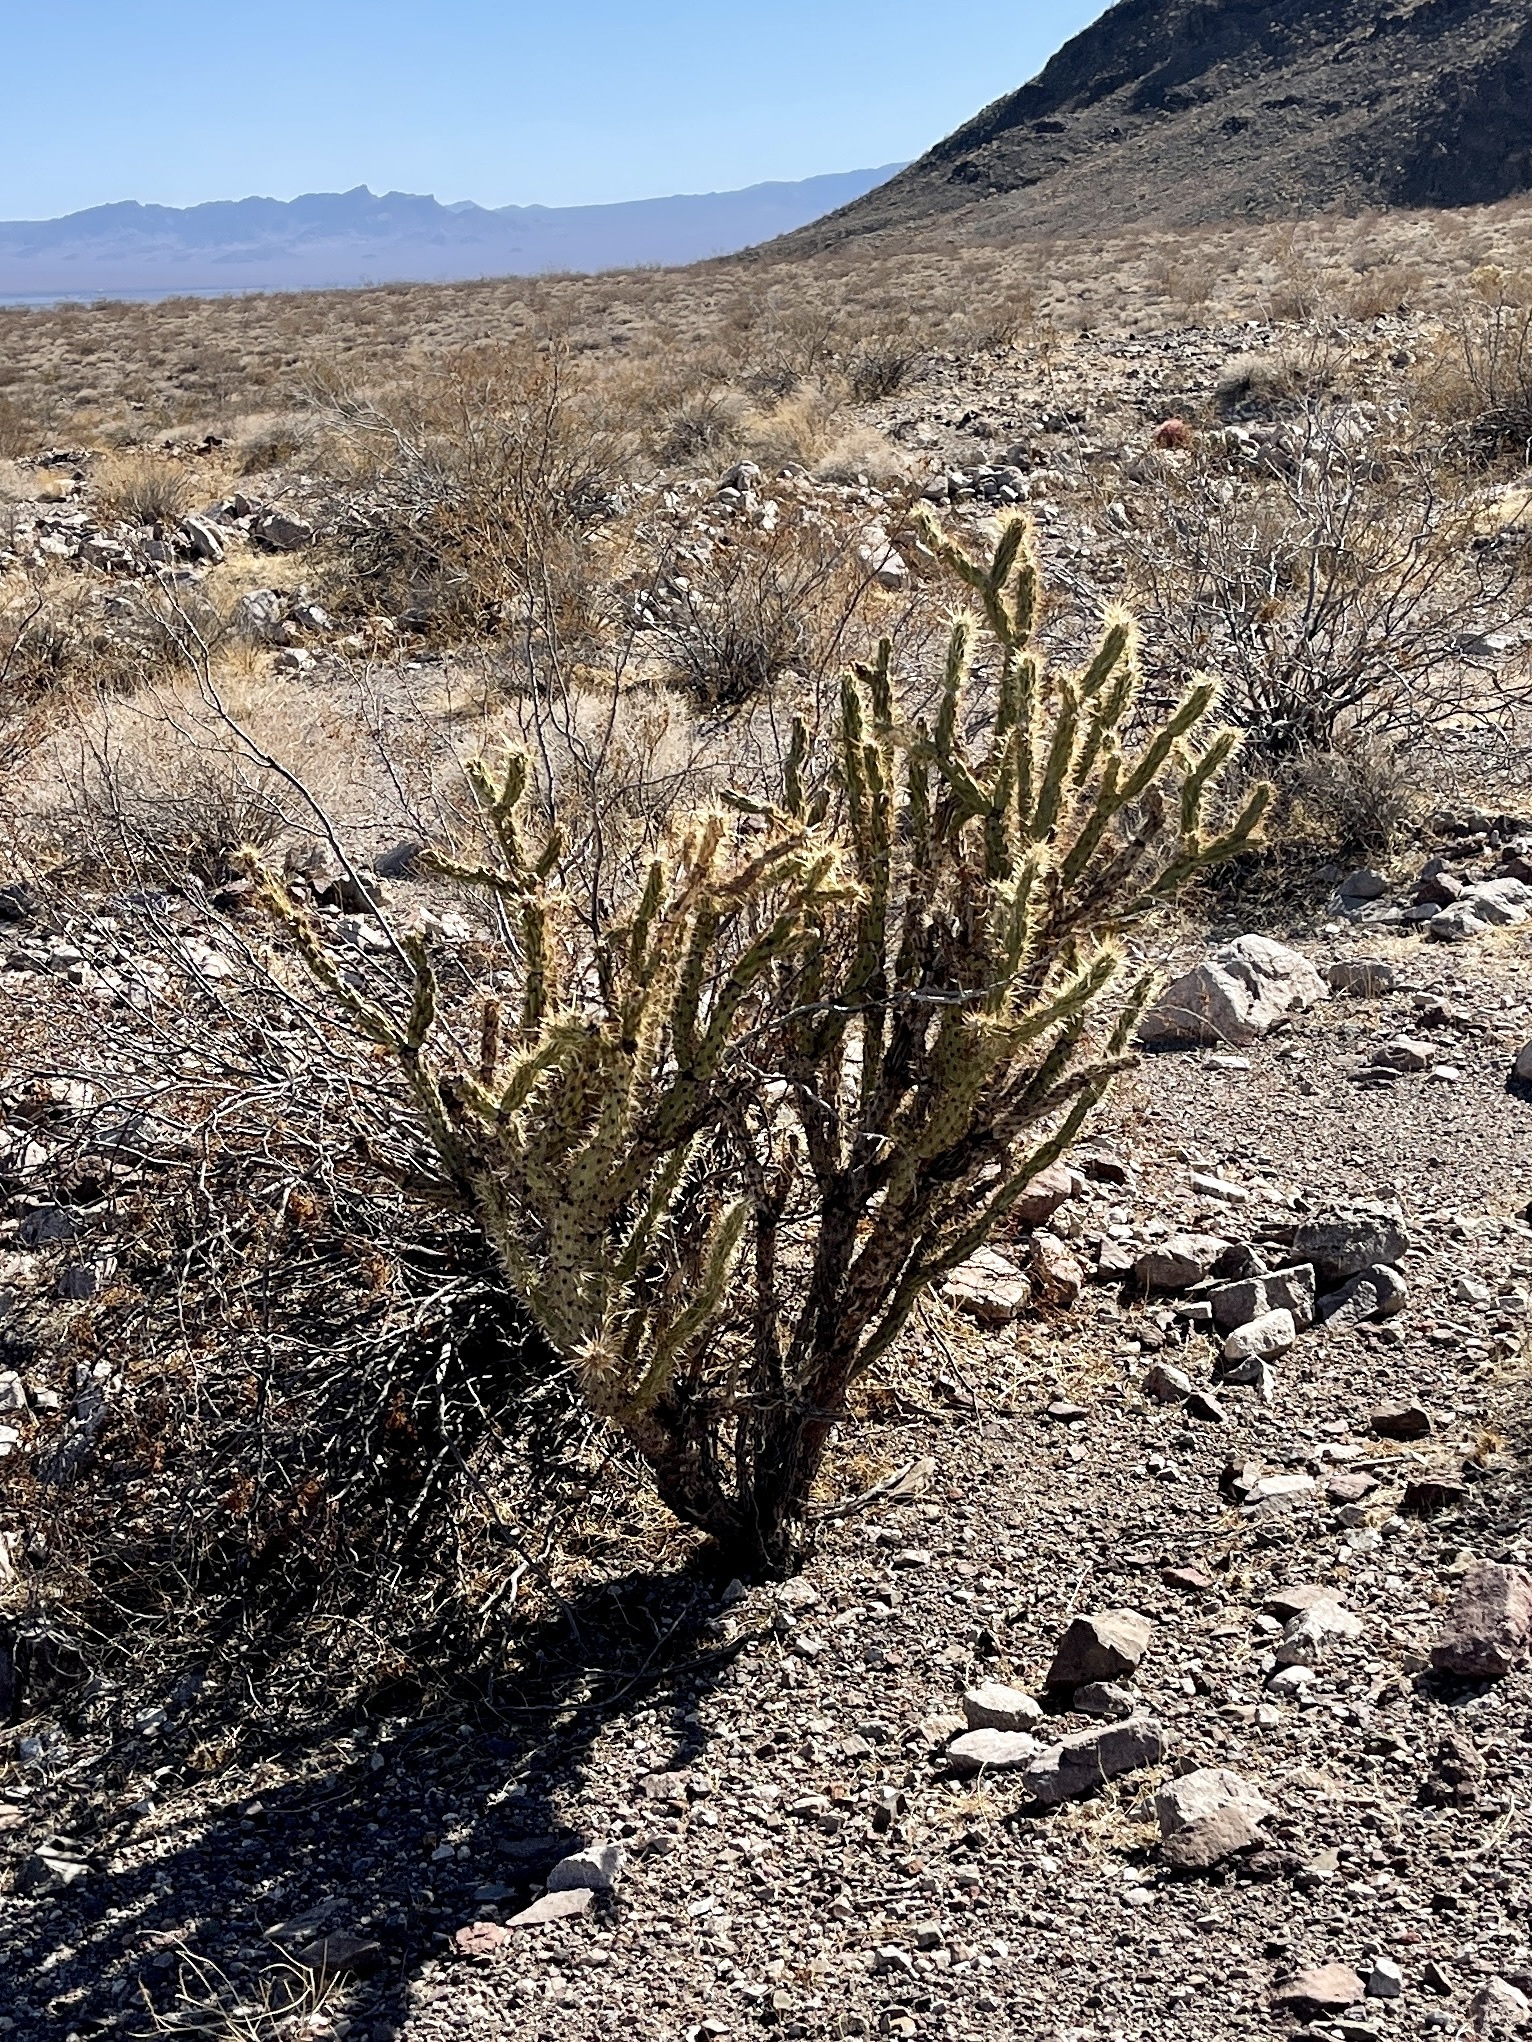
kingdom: Plantae
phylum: Tracheophyta
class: Magnoliopsida
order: Caryophyllales
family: Cactaceae
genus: Cylindropuntia
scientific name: Cylindropuntia acanthocarpa
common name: Buckhorn cholla
